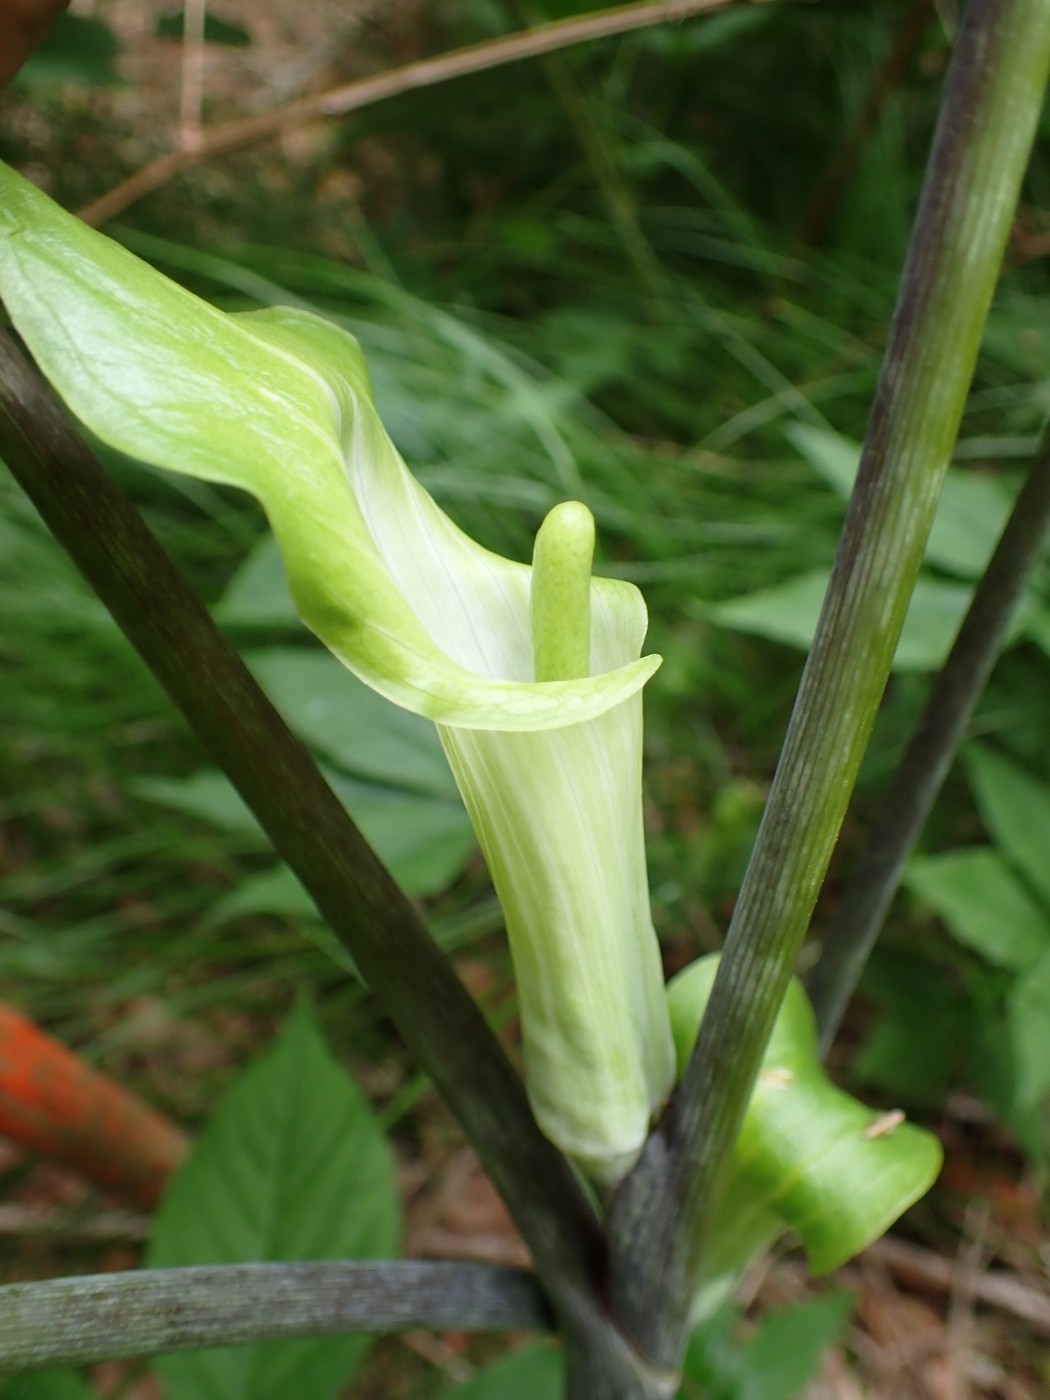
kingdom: Plantae
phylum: Tracheophyta
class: Liliopsida
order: Alismatales
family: Araceae
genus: Arisaema
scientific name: Arisaema quinatum
